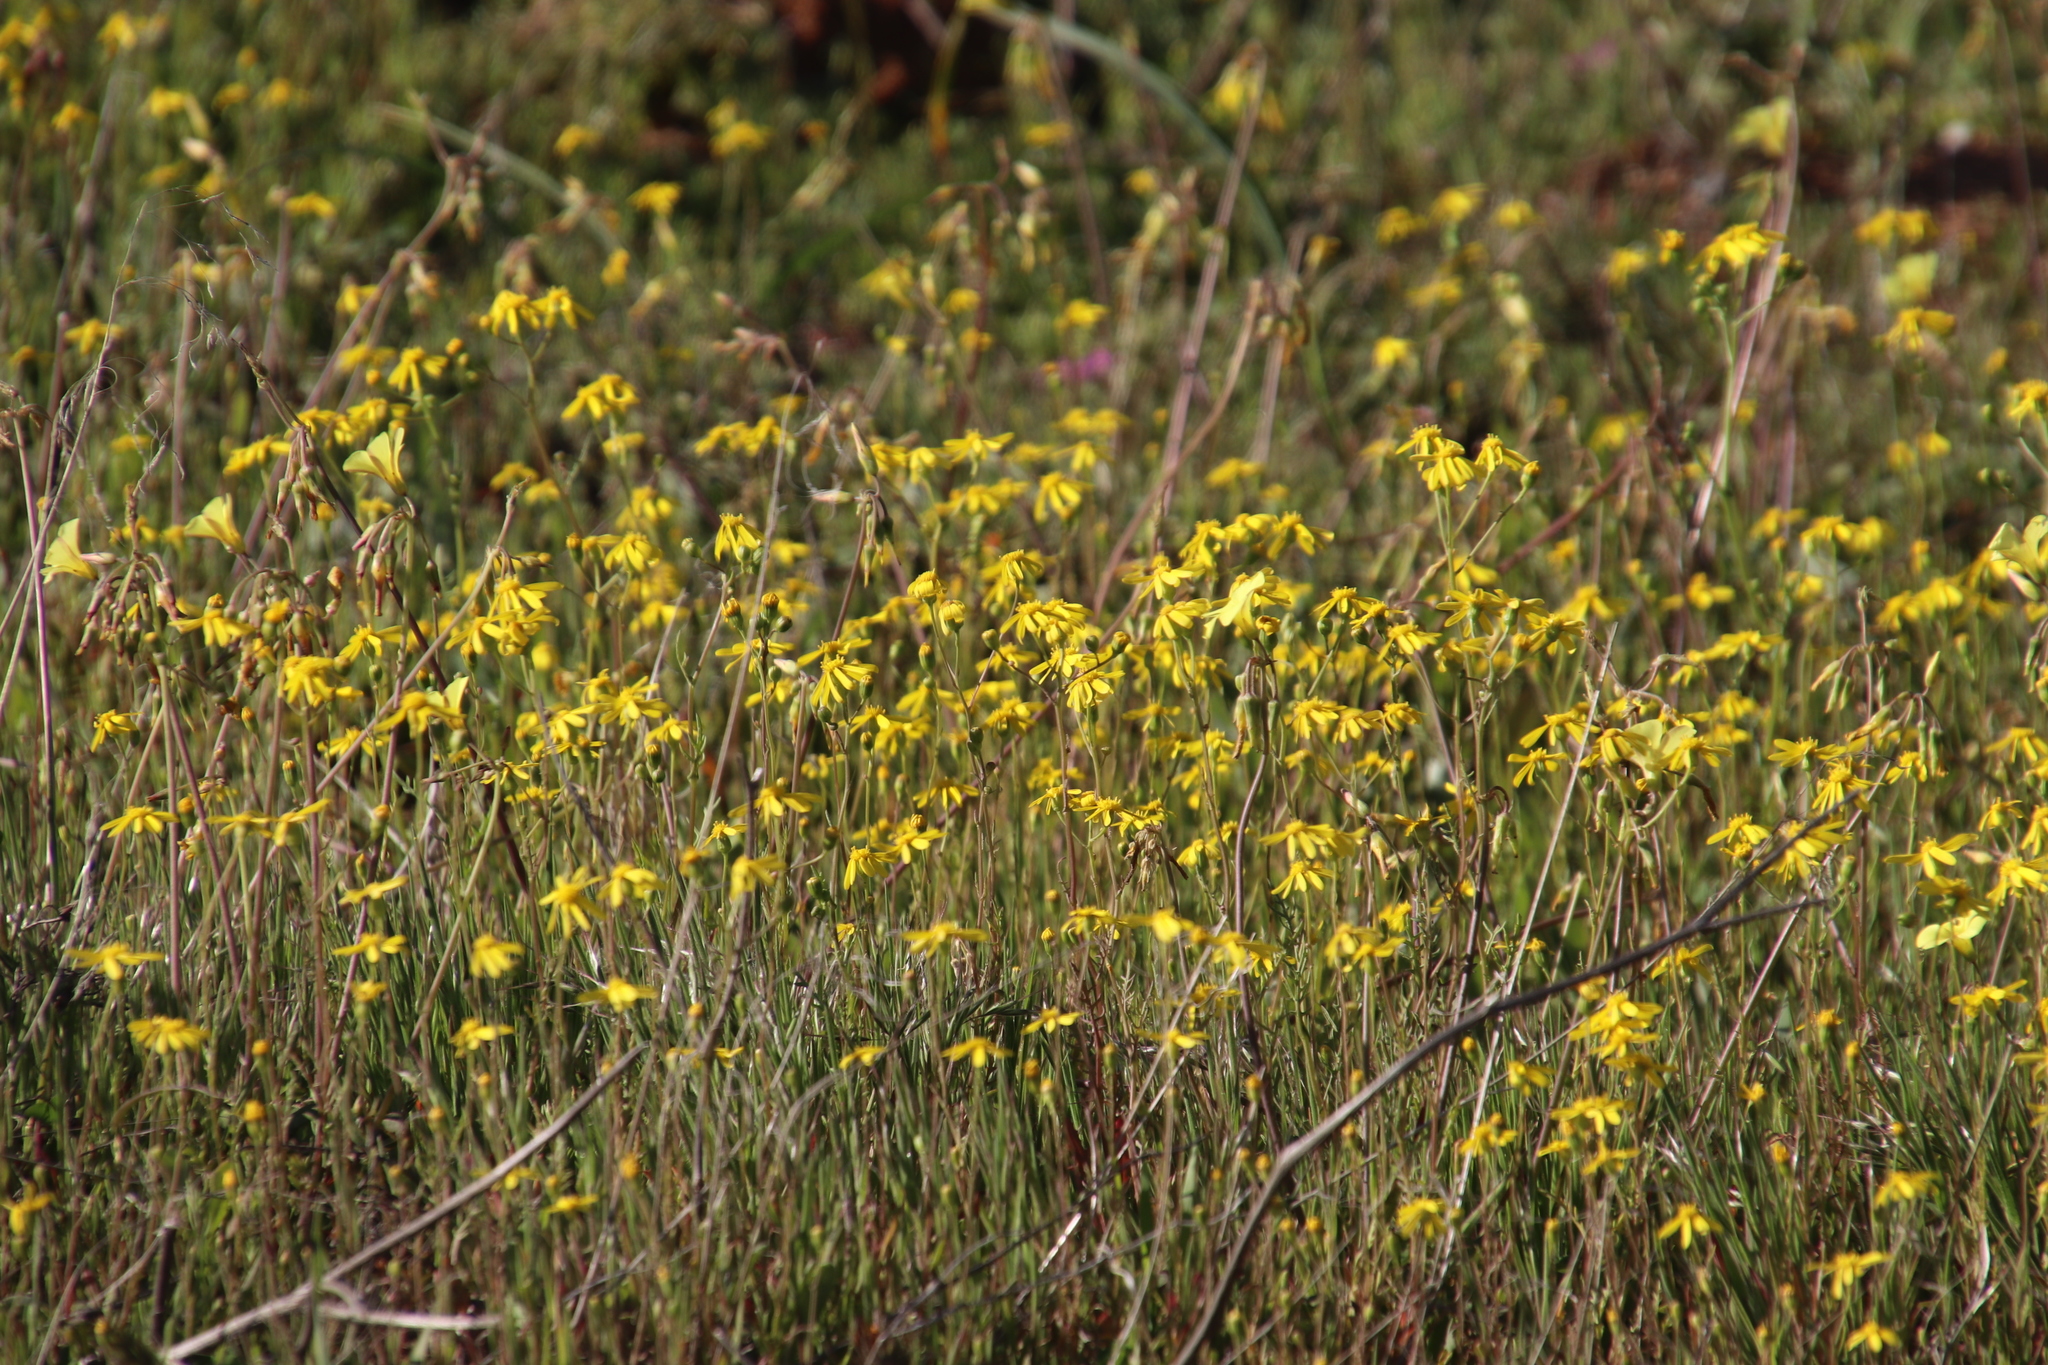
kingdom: Plantae
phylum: Tracheophyta
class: Magnoliopsida
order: Asterales
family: Asteraceae
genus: Senecio
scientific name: Senecio abruptus
